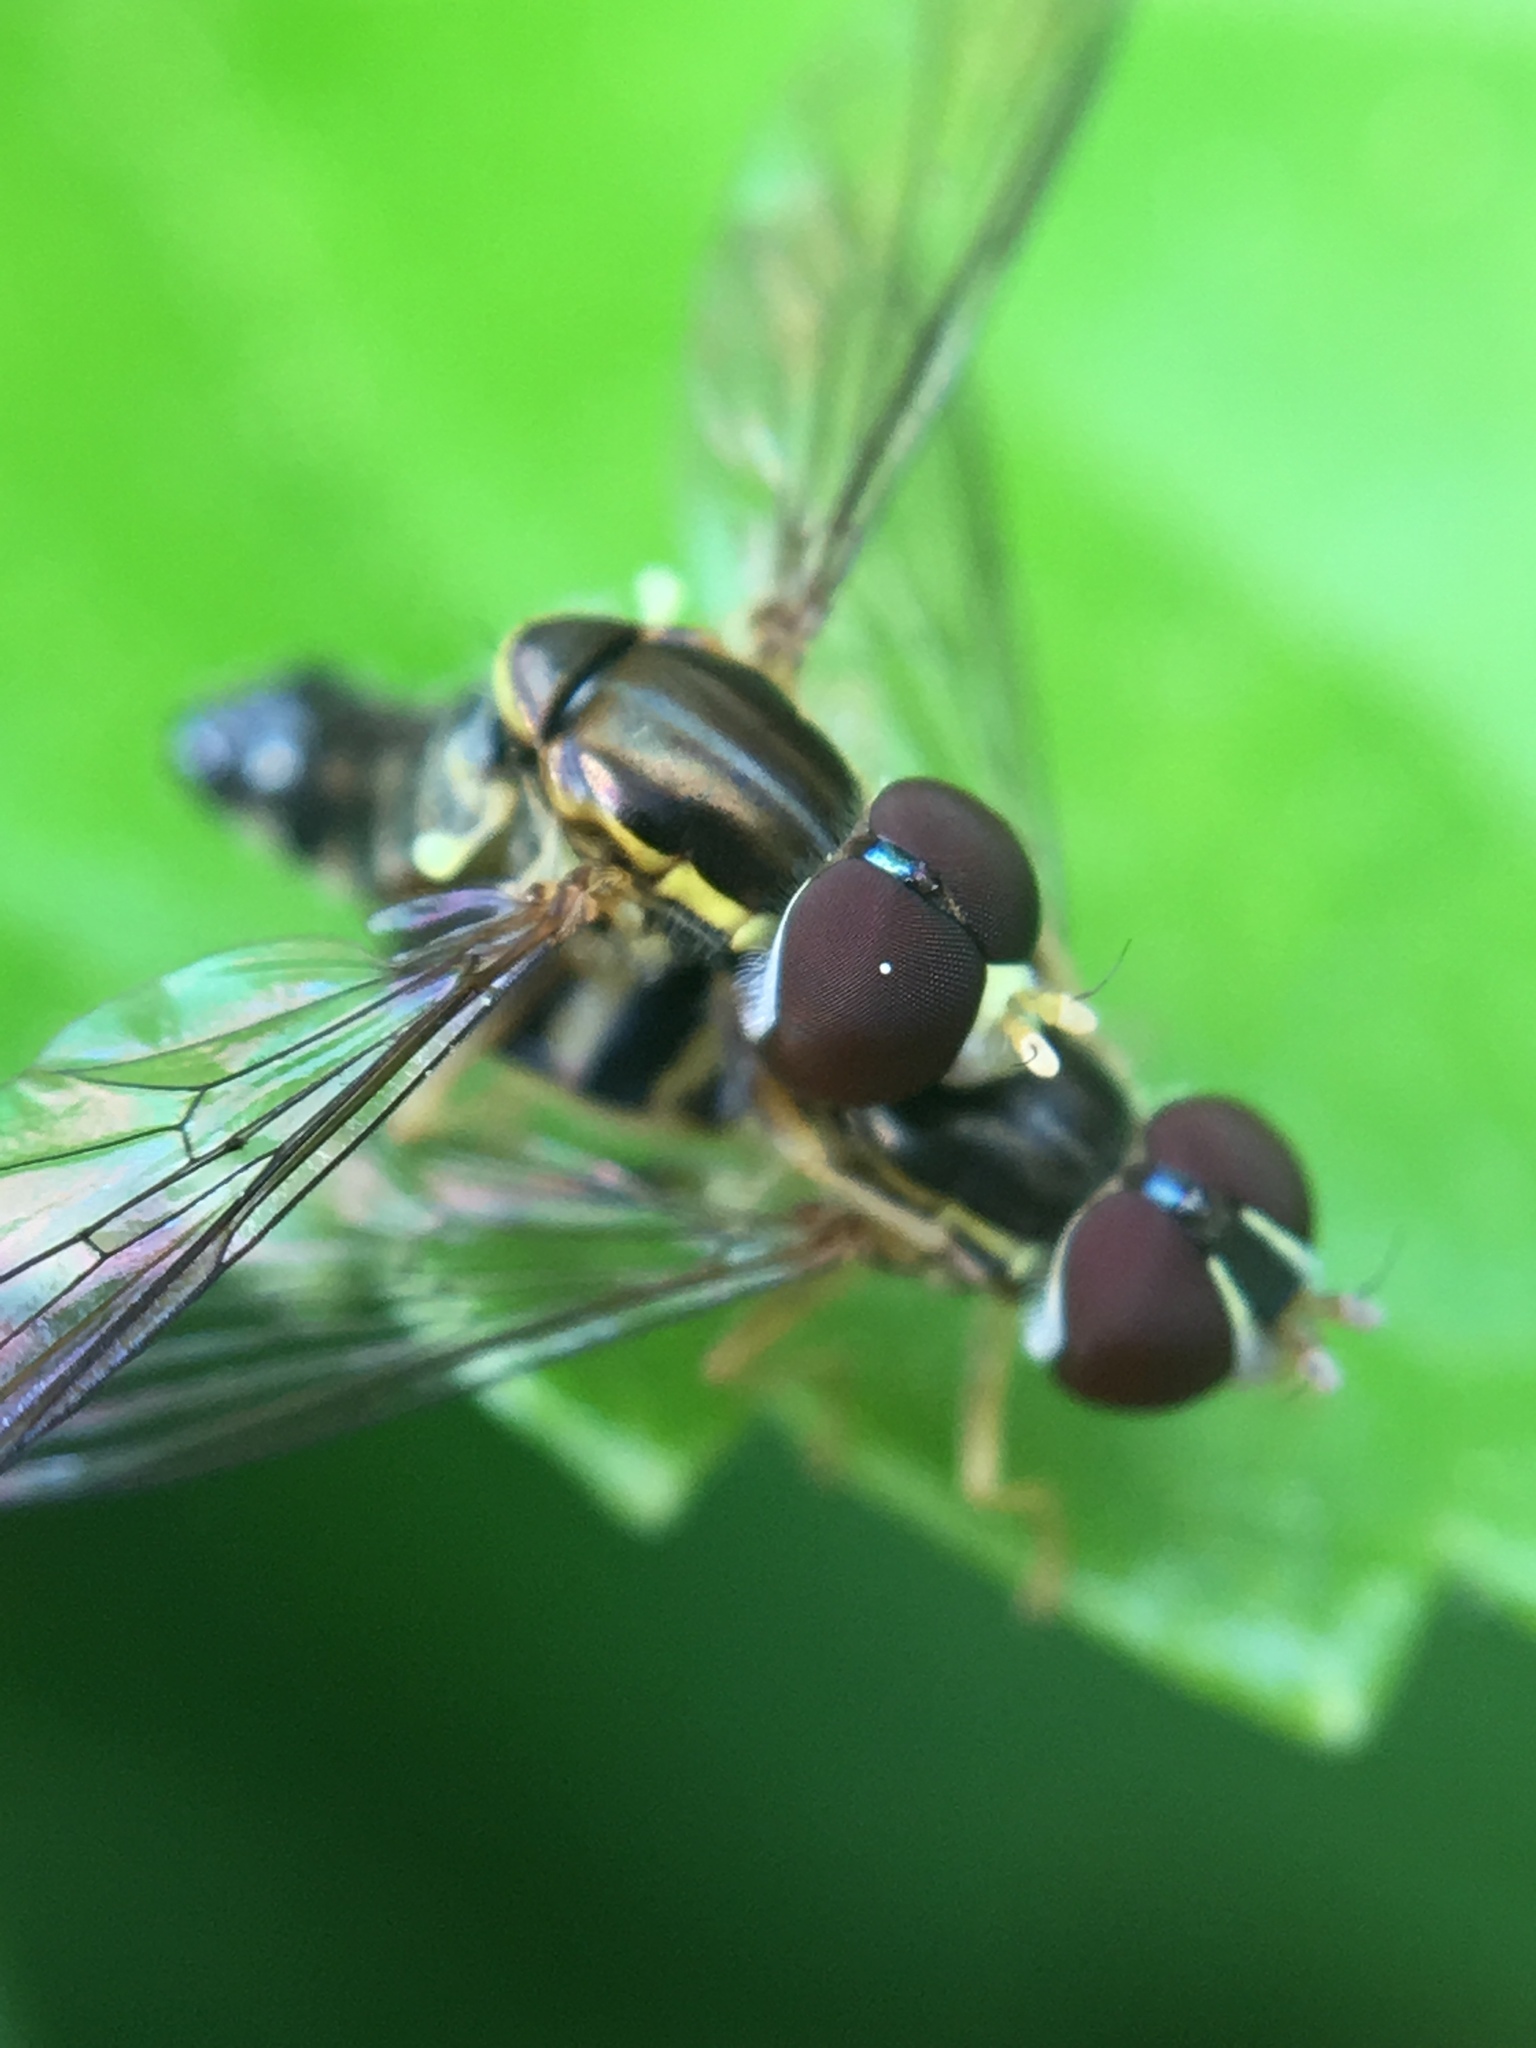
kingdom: Animalia
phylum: Arthropoda
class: Insecta
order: Diptera
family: Syrphidae
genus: Toxomerus
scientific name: Toxomerus geminatus
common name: Eastern calligrapher
